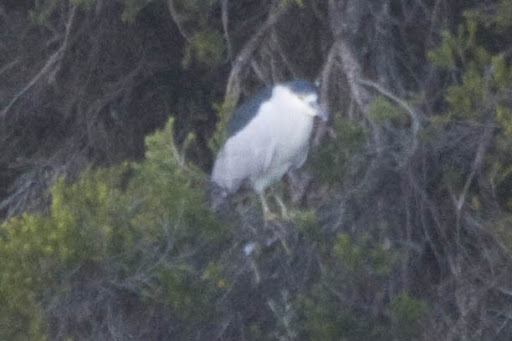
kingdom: Animalia
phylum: Chordata
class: Aves
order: Pelecaniformes
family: Ardeidae
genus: Nycticorax
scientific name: Nycticorax nycticorax
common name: Black-crowned night heron
